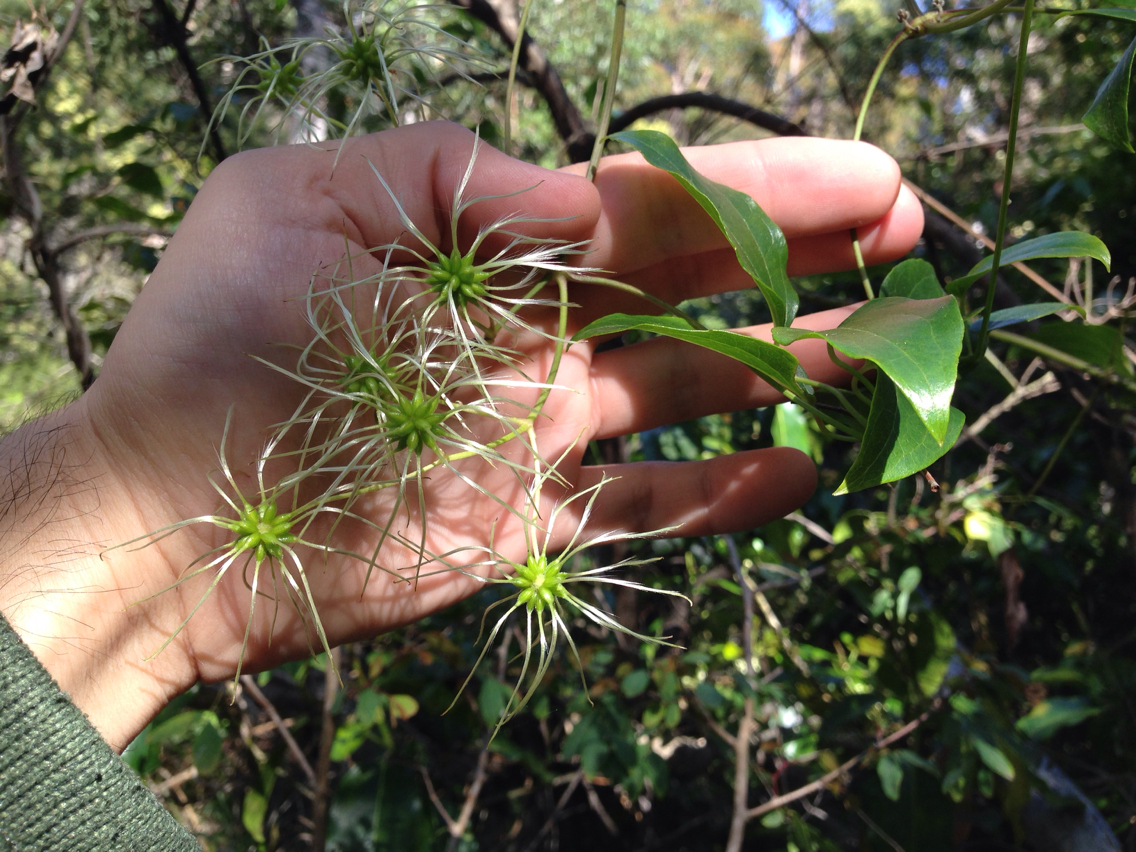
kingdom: Plantae
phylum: Tracheophyta
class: Magnoliopsida
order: Ranunculales
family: Ranunculaceae
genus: Clematis
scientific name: Clematis glycinoides
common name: Forest clematis
